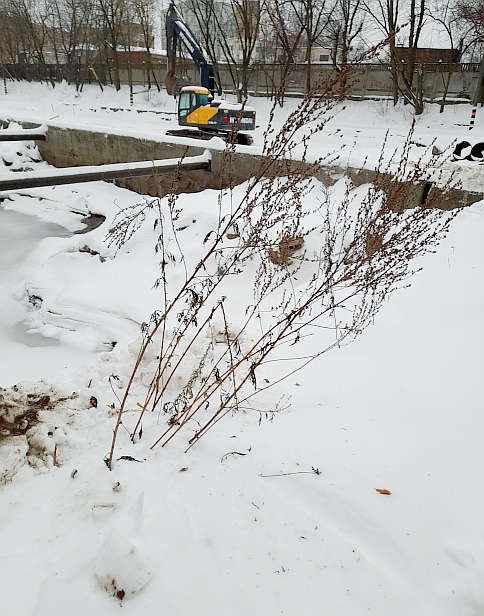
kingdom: Plantae
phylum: Tracheophyta
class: Magnoliopsida
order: Asterales
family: Asteraceae
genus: Artemisia
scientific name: Artemisia vulgaris
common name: Mugwort
